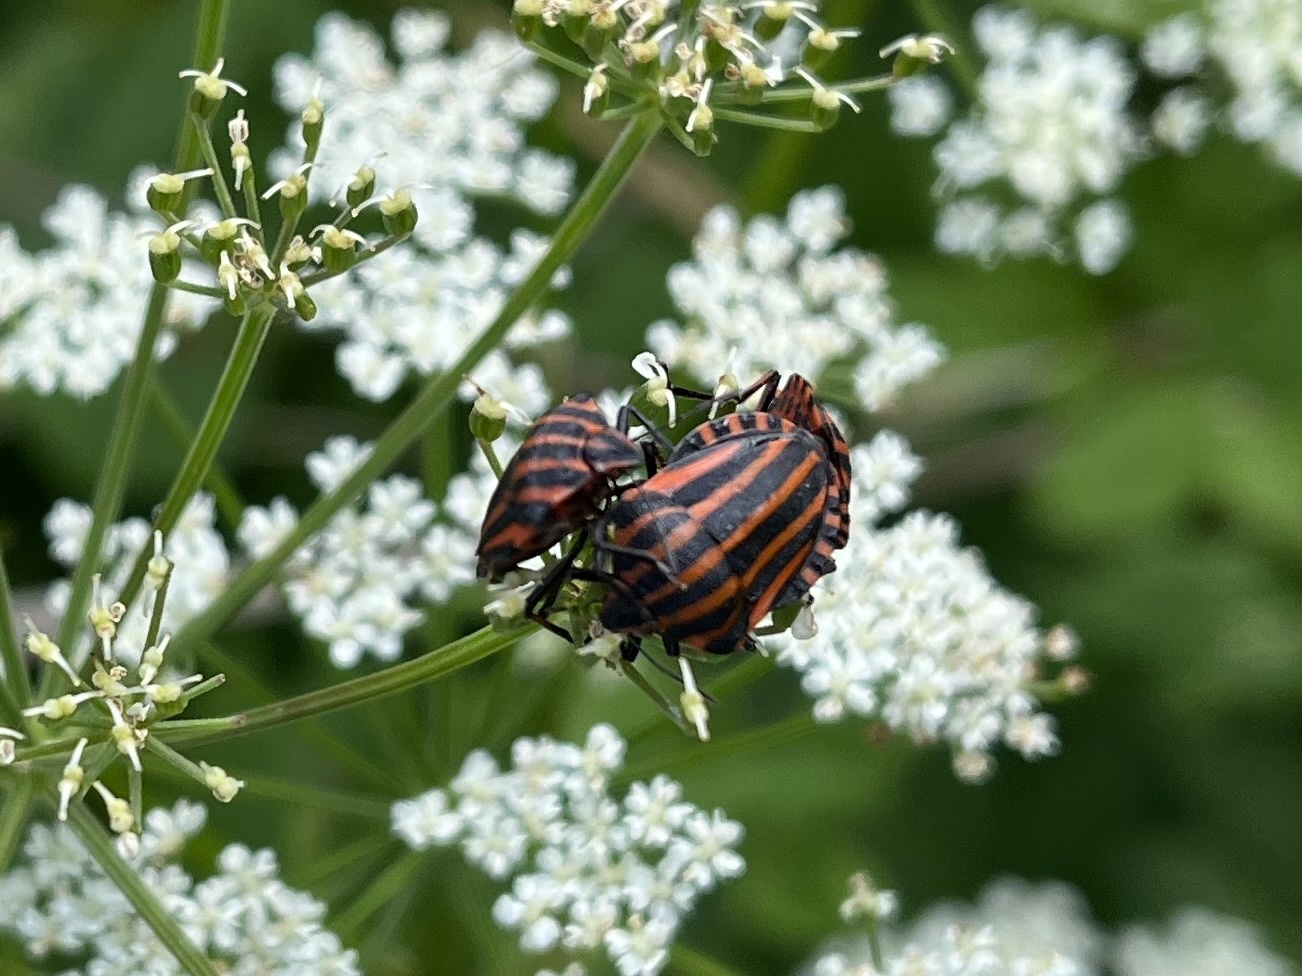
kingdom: Animalia
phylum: Arthropoda
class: Insecta
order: Hemiptera
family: Pentatomidae
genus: Graphosoma
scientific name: Graphosoma italicum
